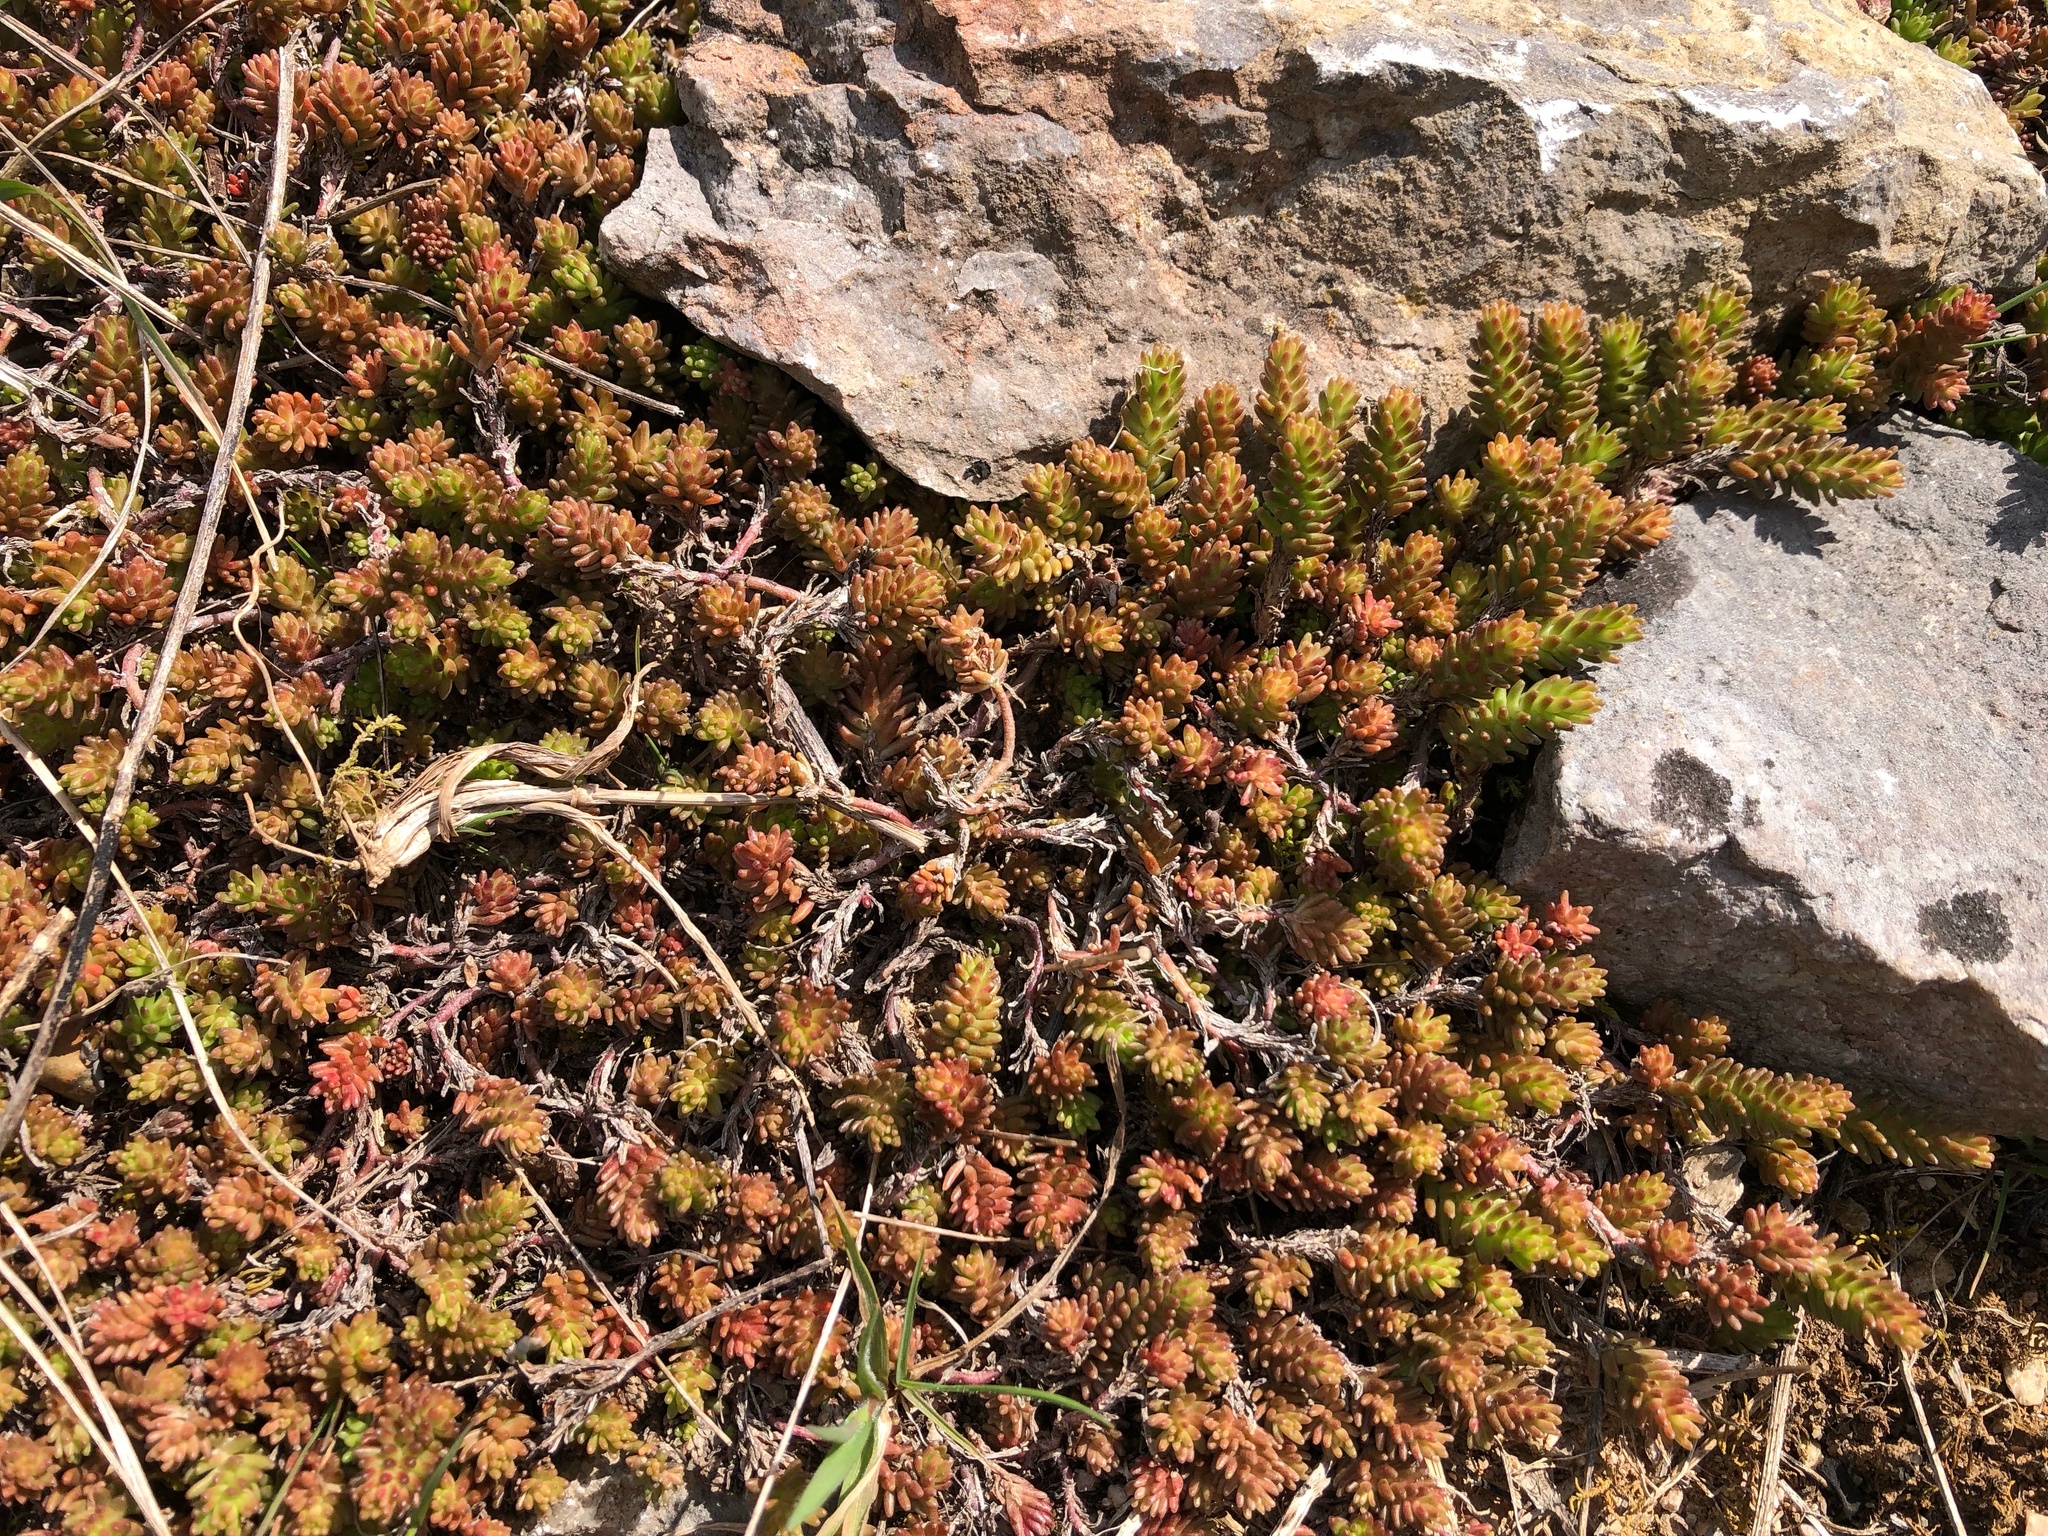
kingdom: Plantae
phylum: Tracheophyta
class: Magnoliopsida
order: Saxifragales
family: Crassulaceae
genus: Sedum
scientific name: Sedum sexangulare
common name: Tasteless stonecrop
